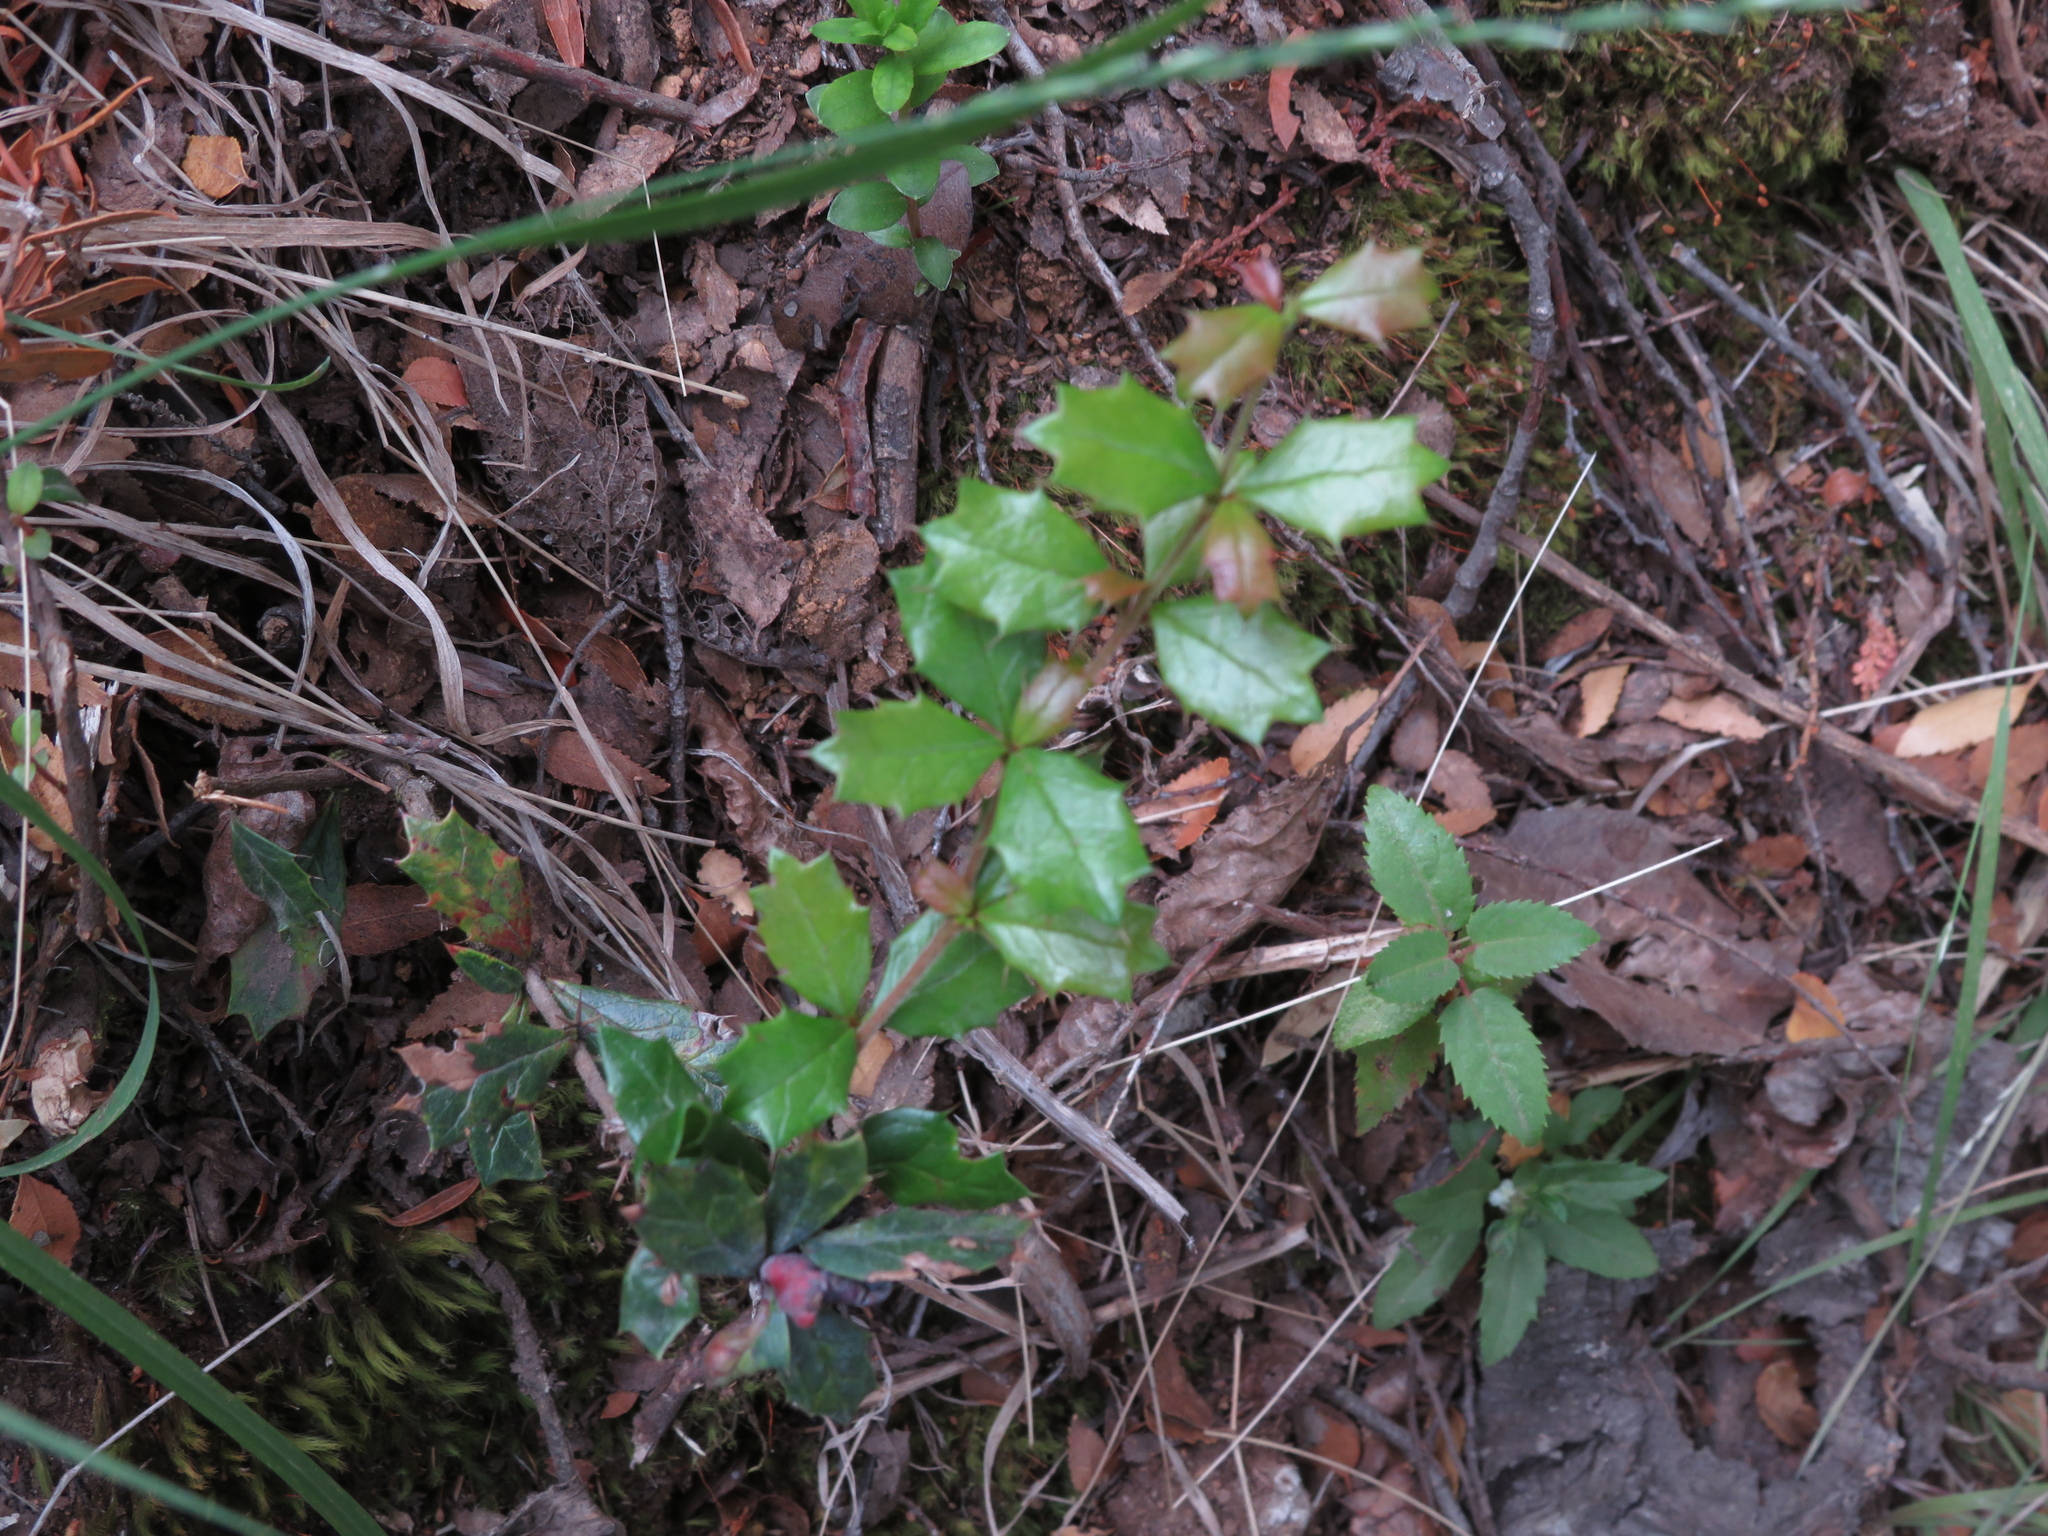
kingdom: Plantae
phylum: Tracheophyta
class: Magnoliopsida
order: Ranunculales
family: Berberidaceae
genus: Berberis
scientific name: Berberis darwinii
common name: Darwin's barberry
